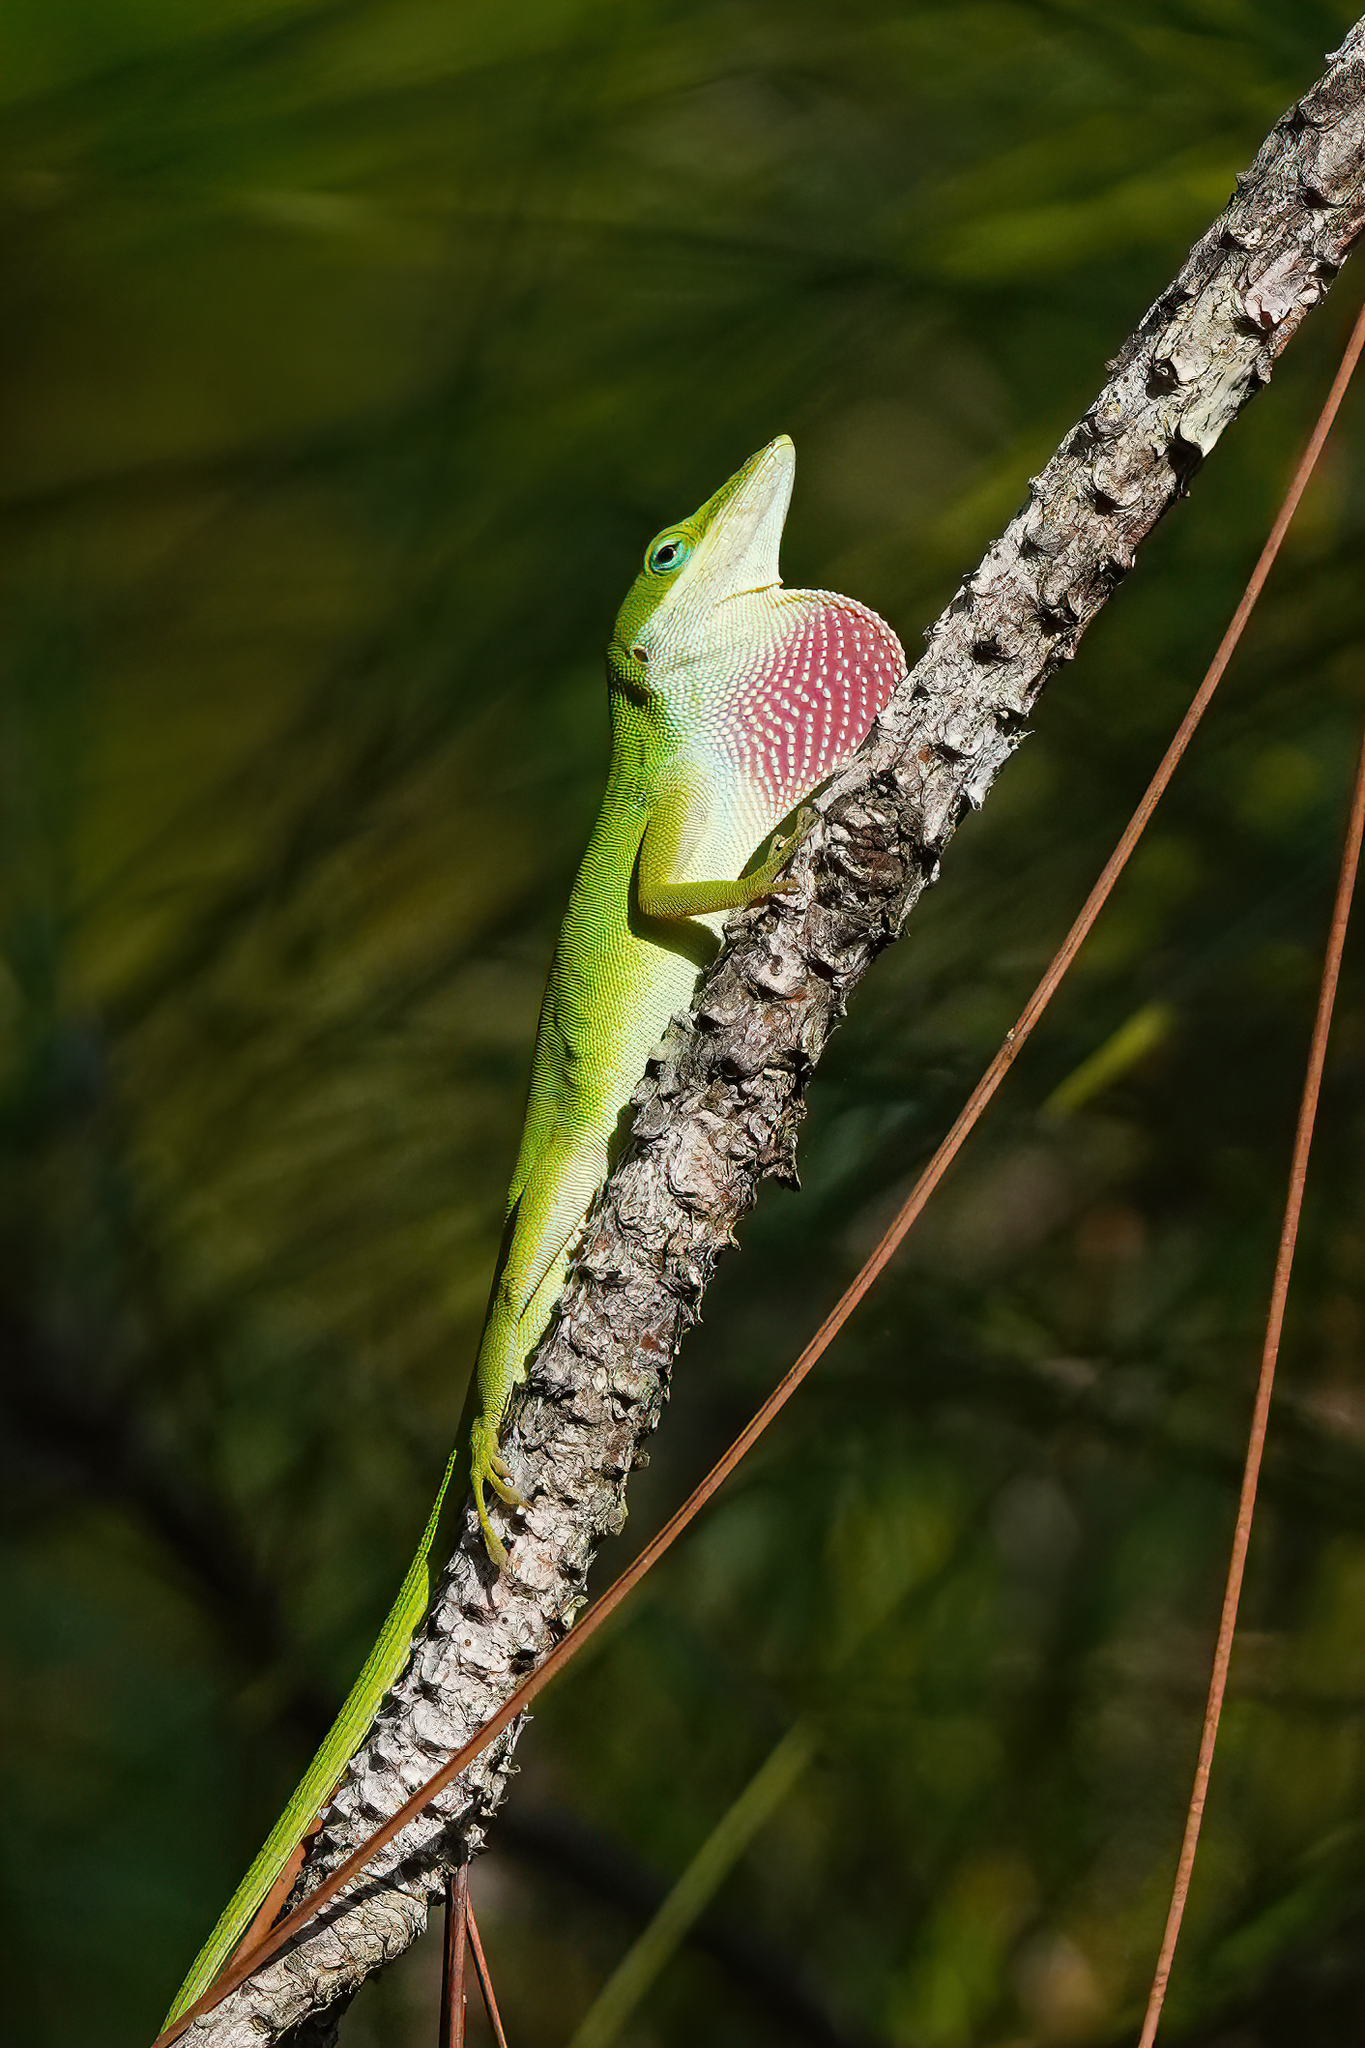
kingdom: Animalia
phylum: Chordata
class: Squamata
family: Dactyloidae
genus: Anolis
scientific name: Anolis carolinensis
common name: Green anole
